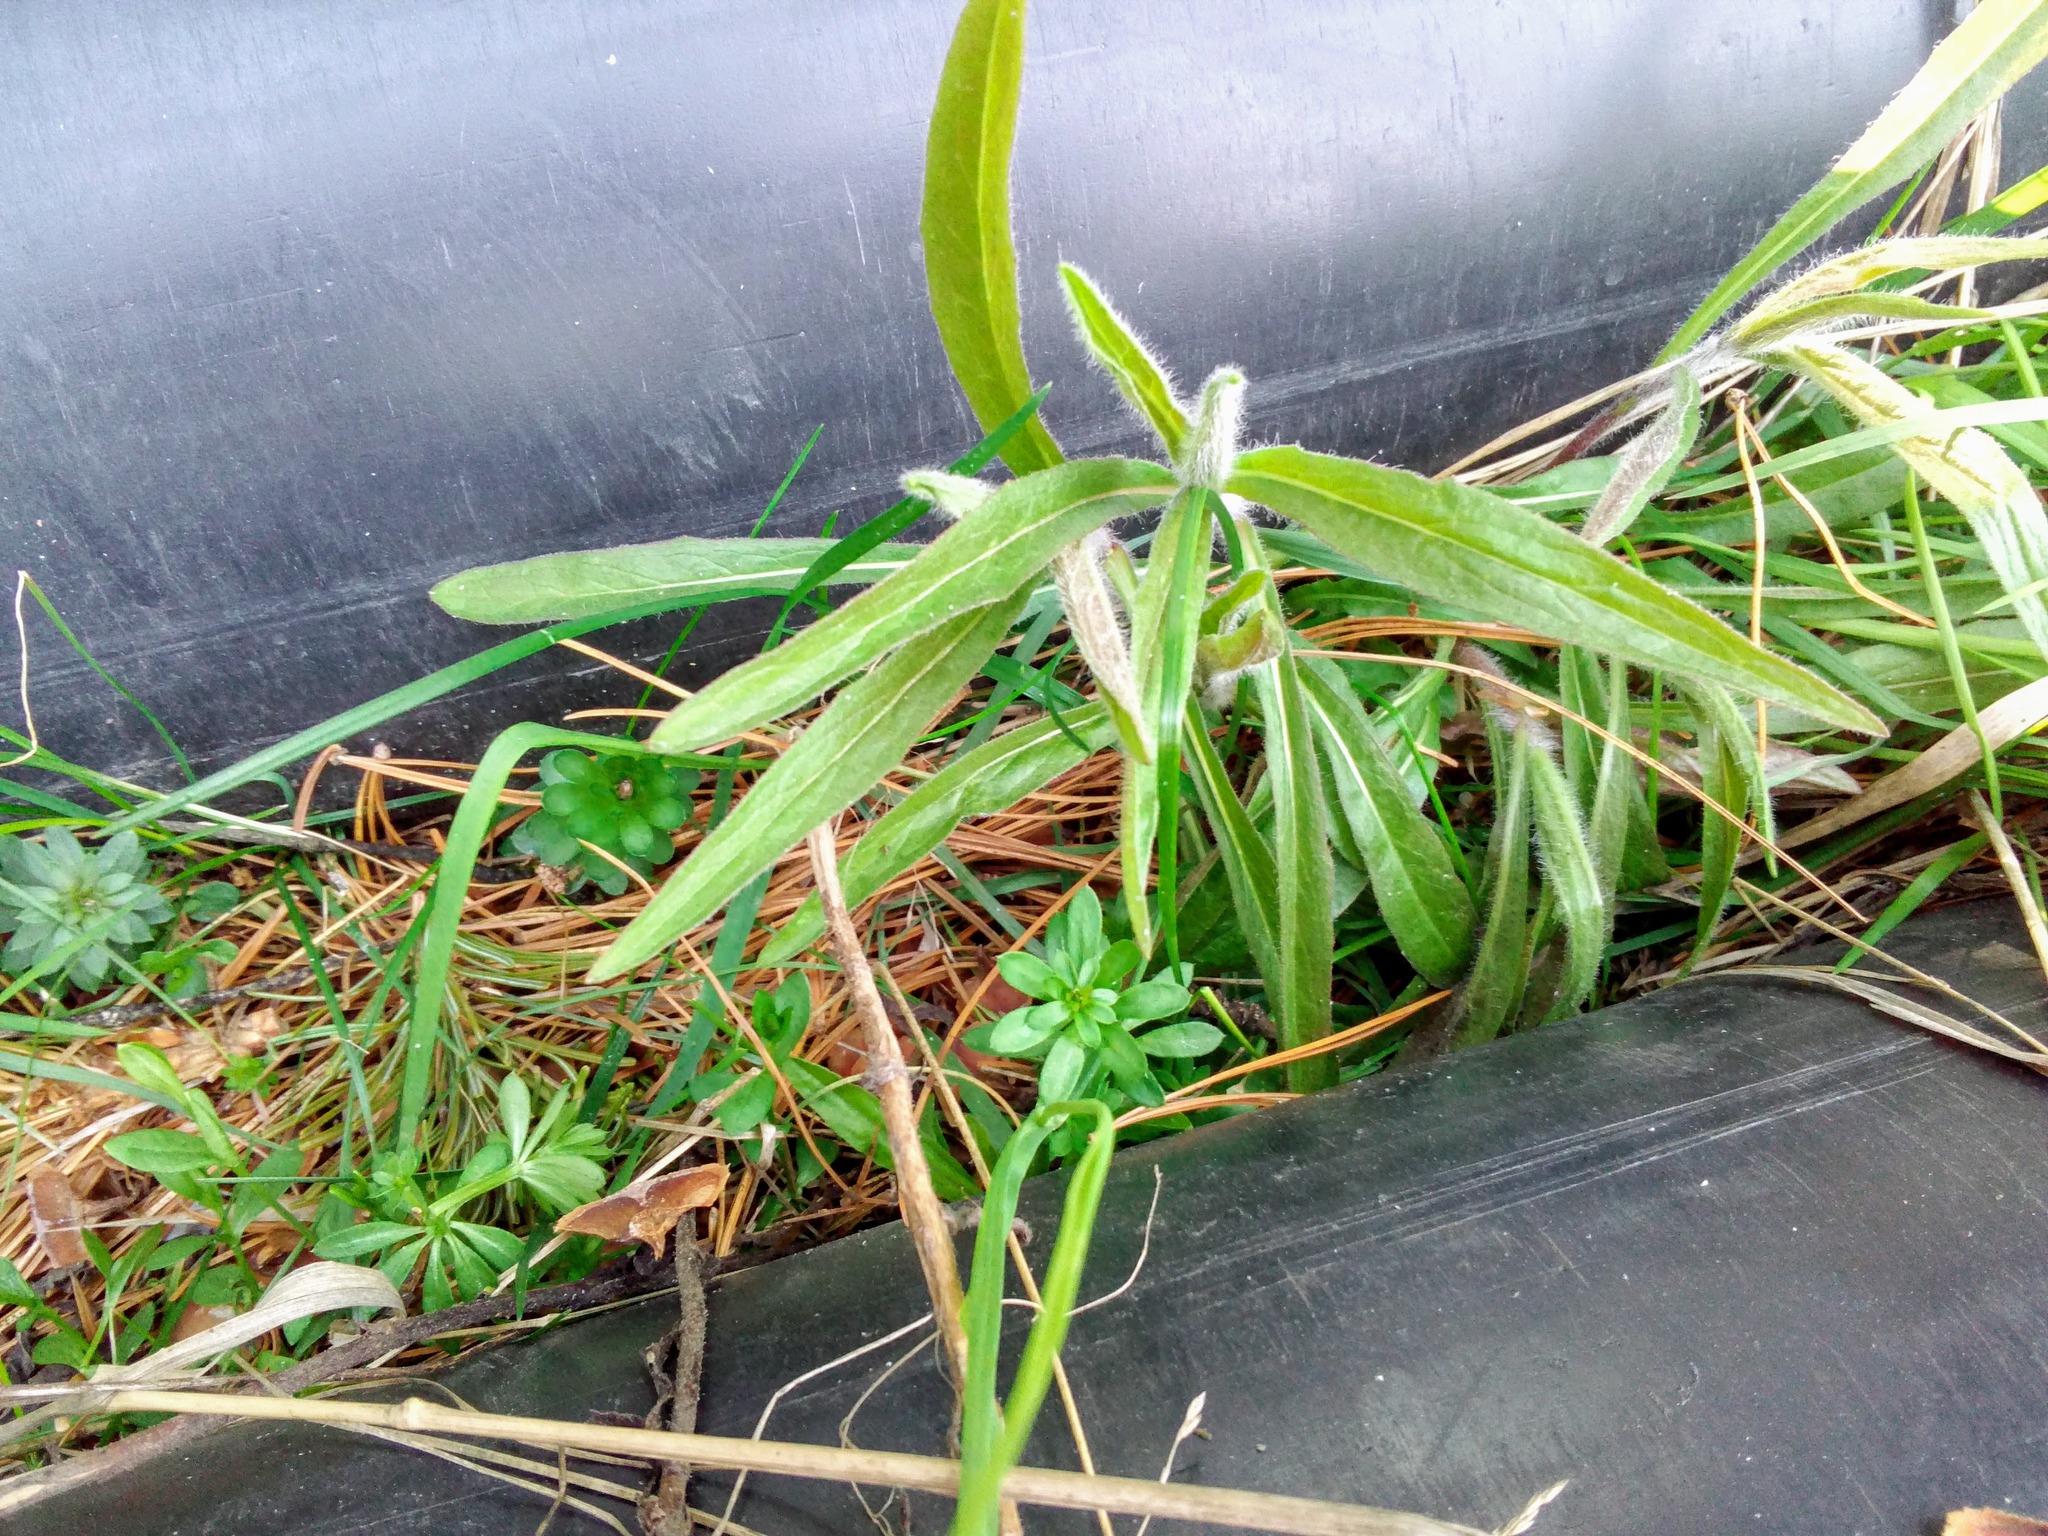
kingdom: Plantae
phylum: Tracheophyta
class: Magnoliopsida
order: Asterales
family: Asteraceae
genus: Hieracium
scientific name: Hieracium umbellatum
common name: Northern hawkweed
